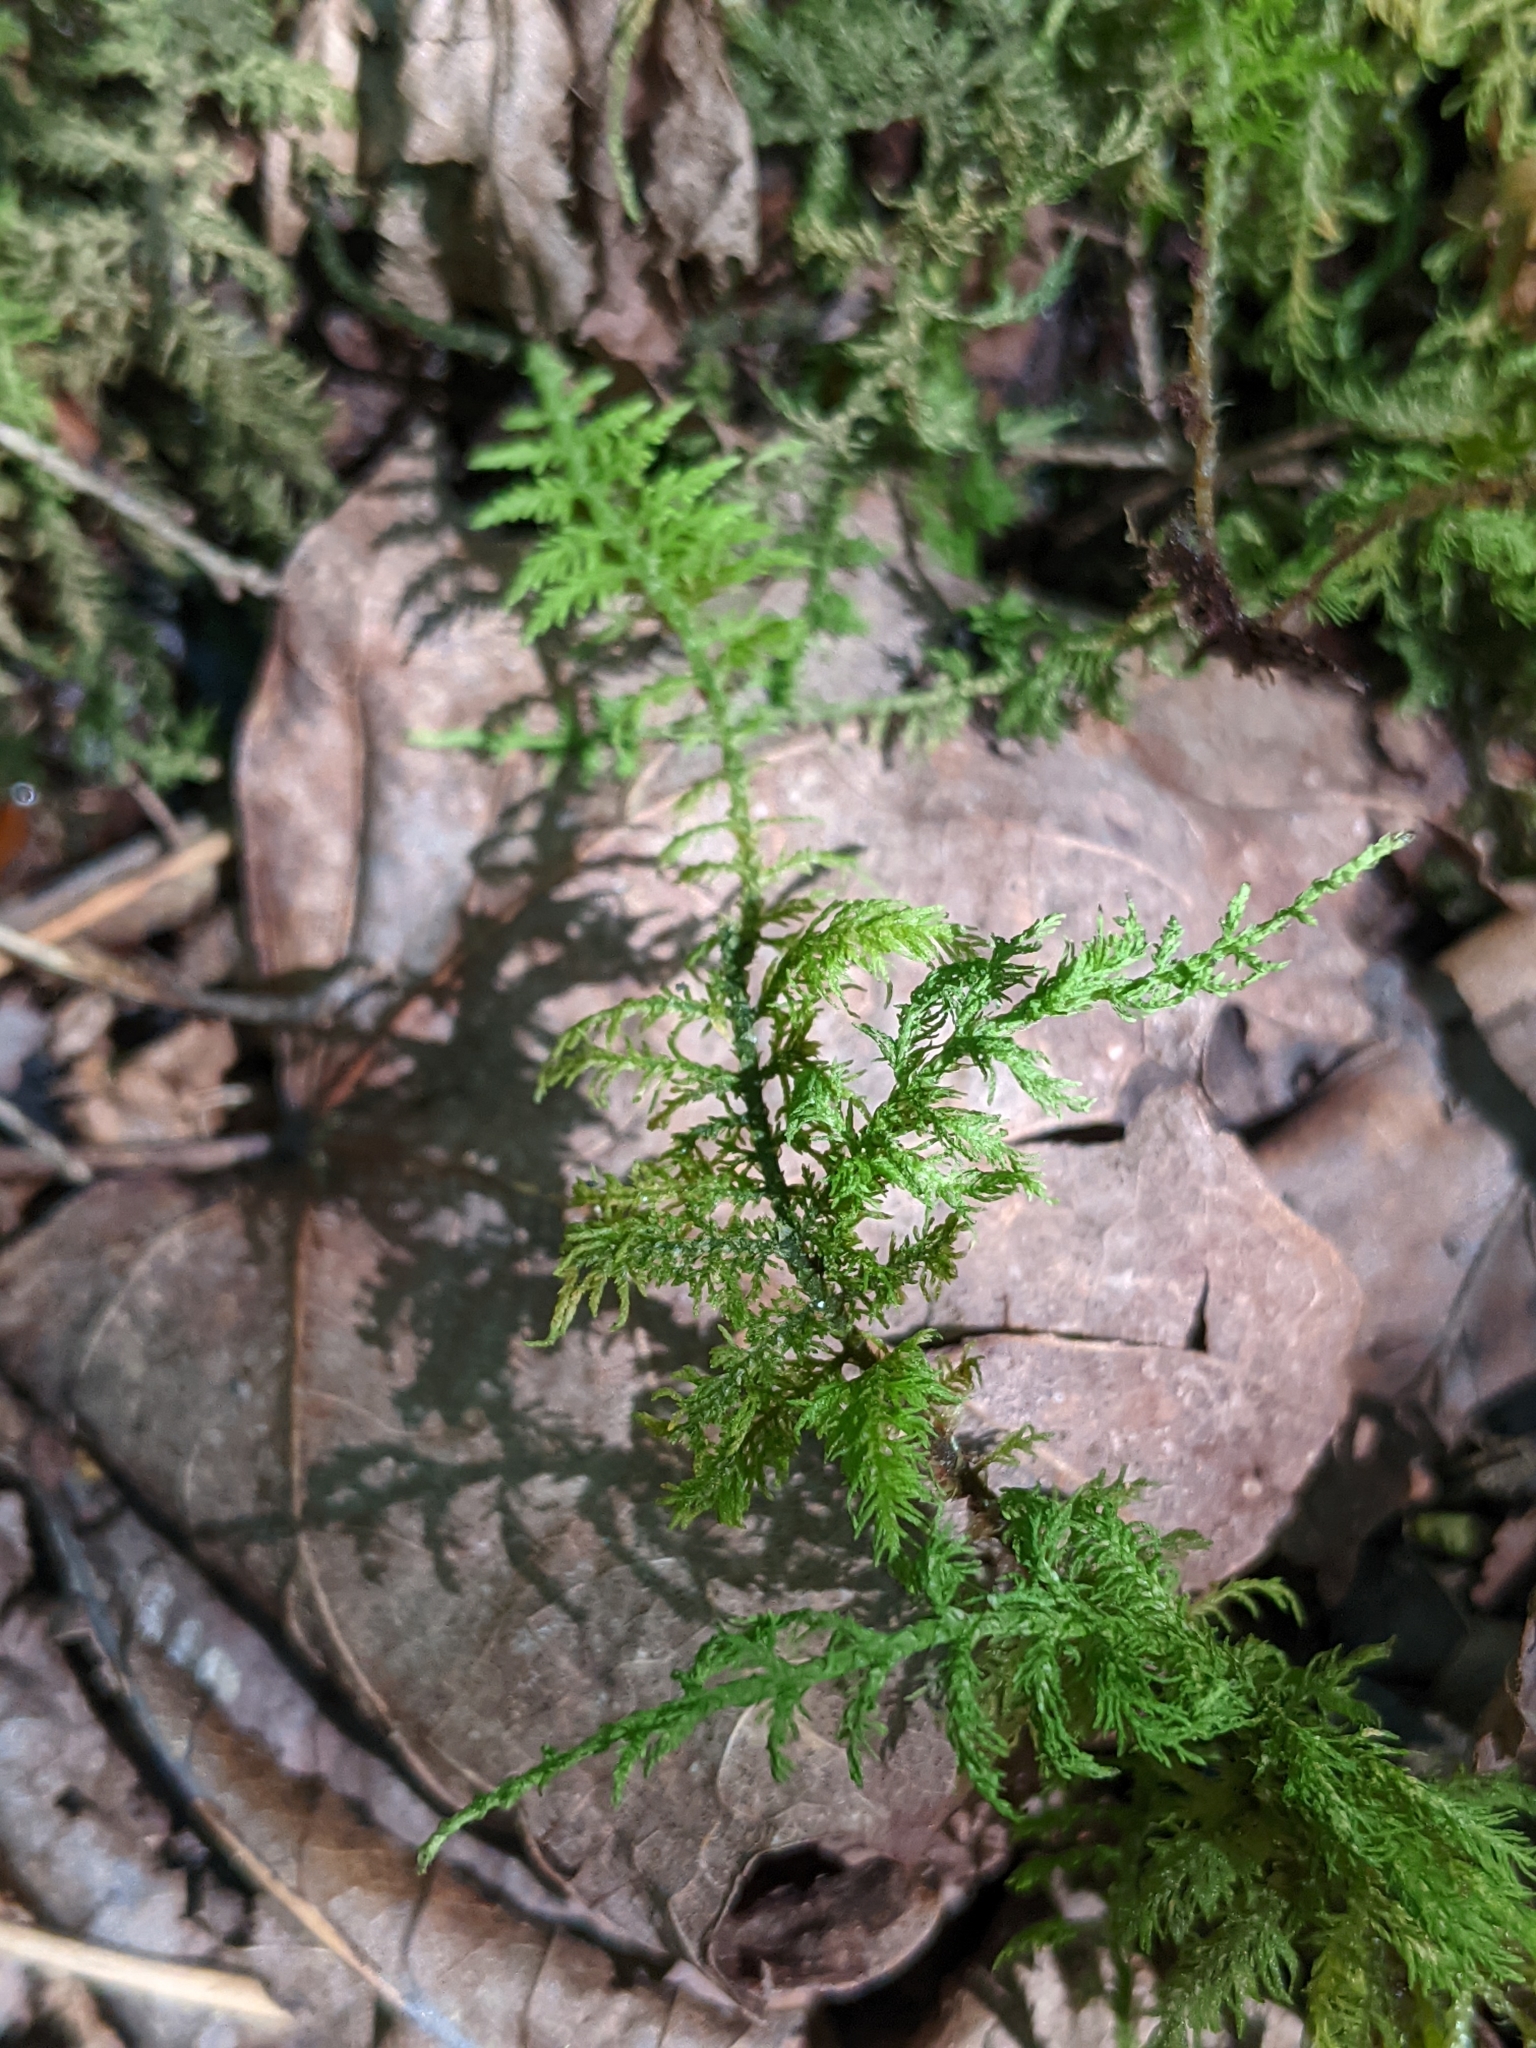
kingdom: Plantae
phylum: Bryophyta
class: Bryopsida
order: Hypnales
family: Thuidiaceae
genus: Thuidium
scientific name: Thuidium delicatulum
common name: Delicate fern moss
